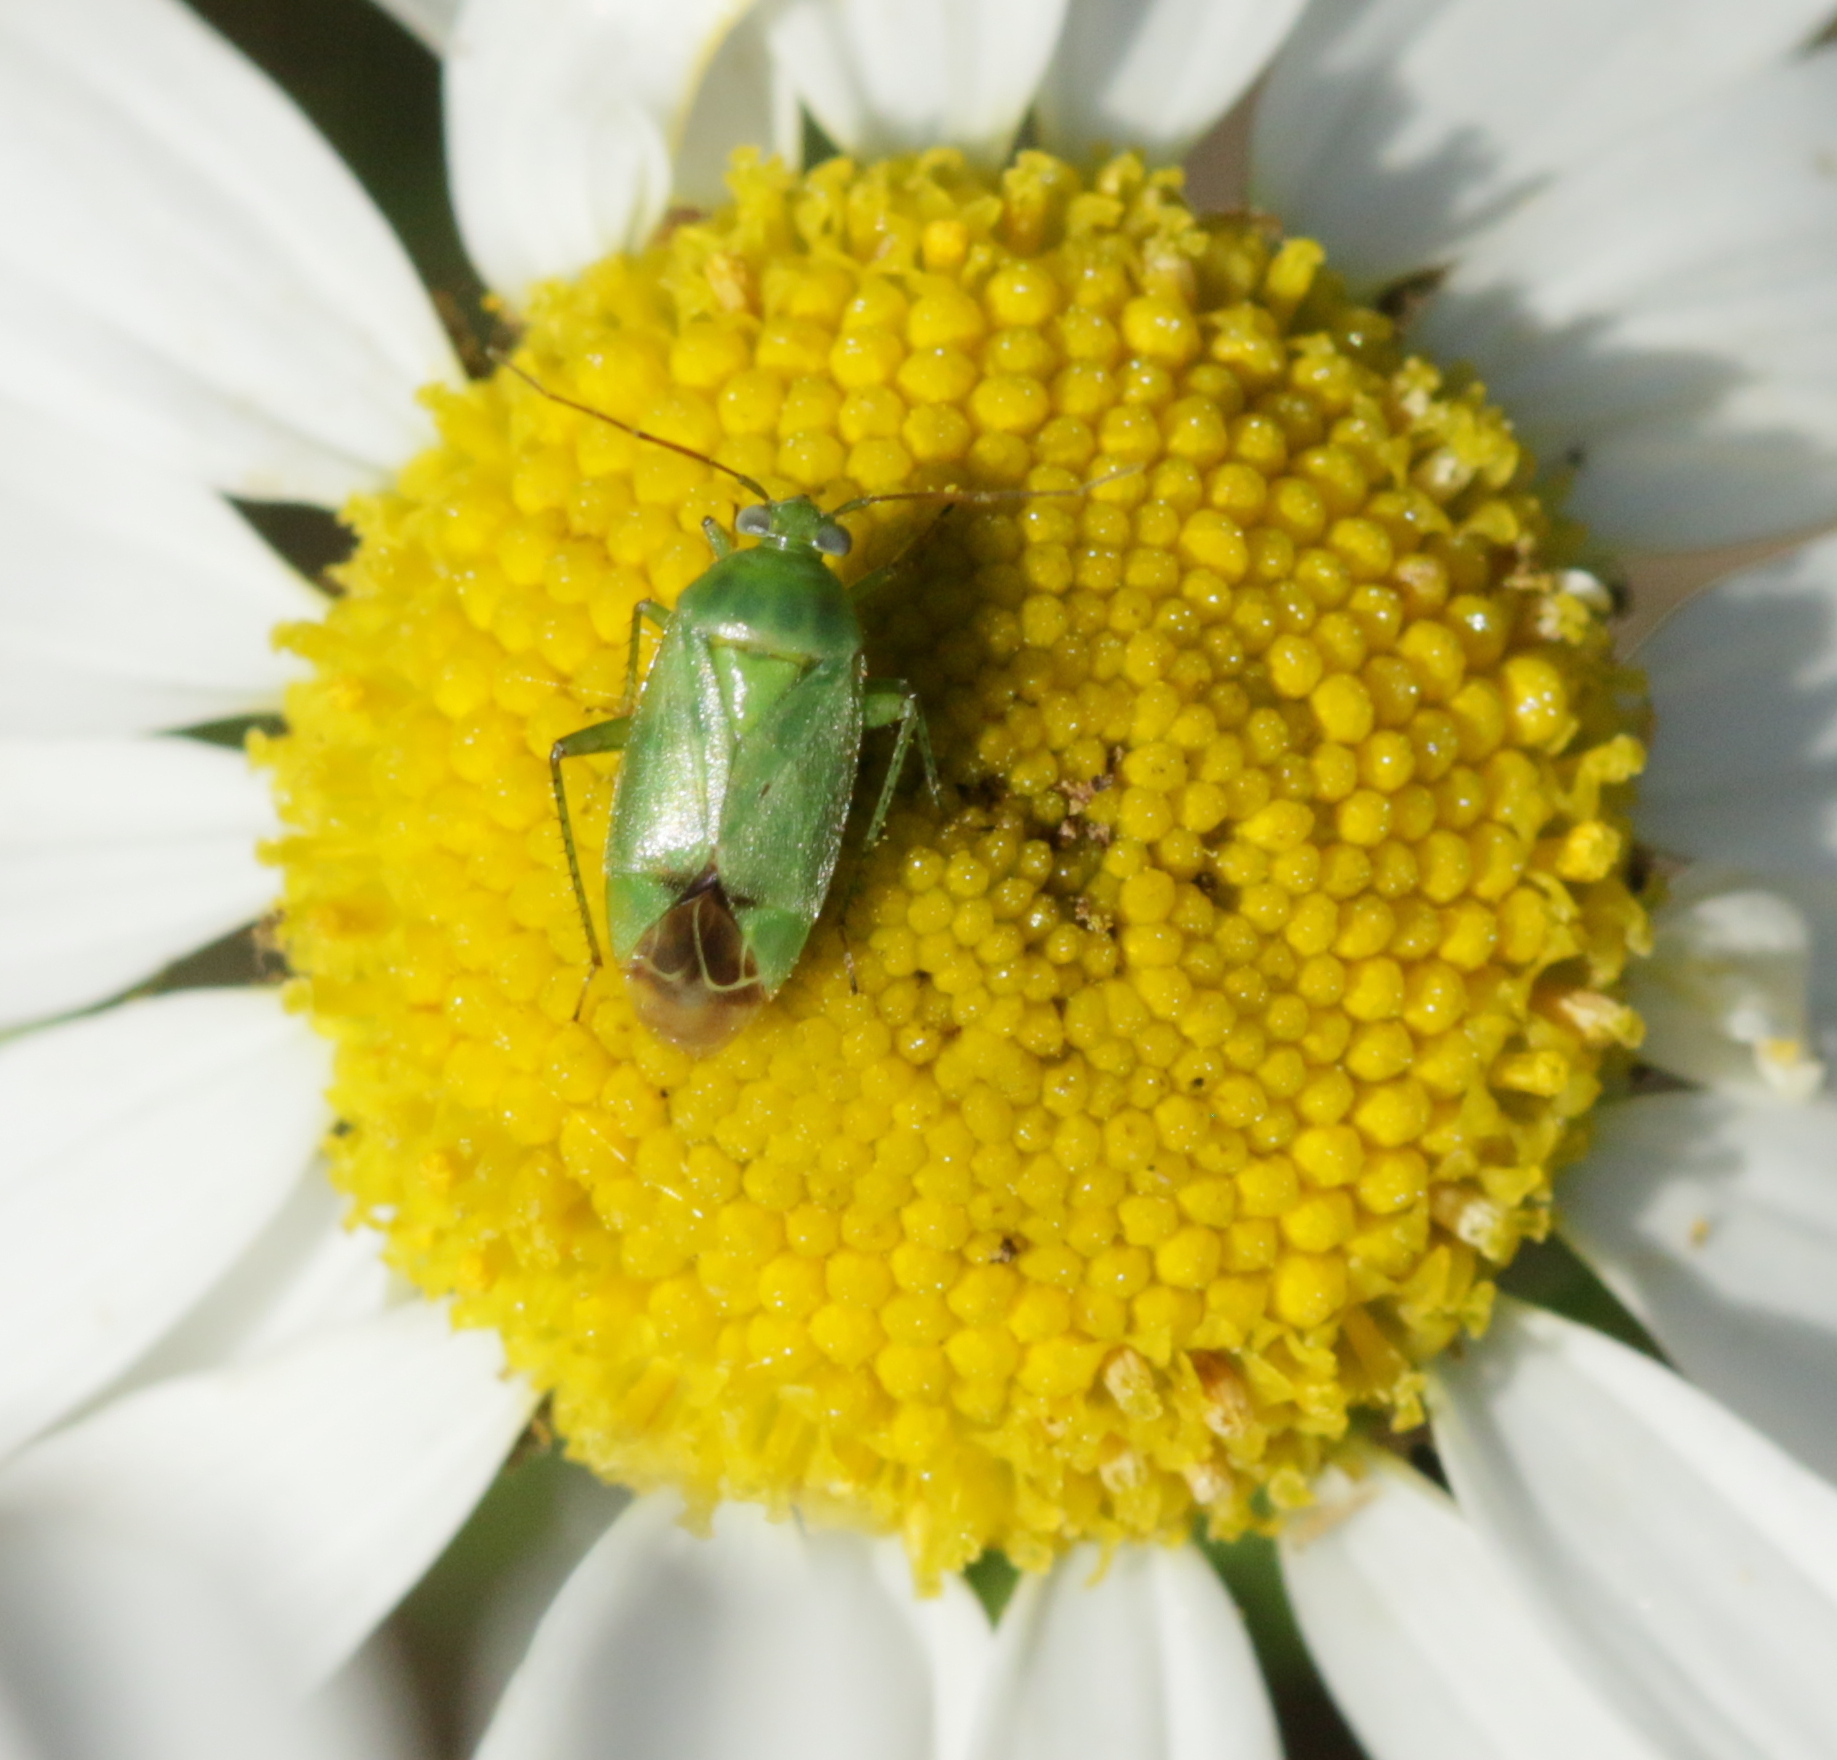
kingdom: Animalia
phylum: Arthropoda
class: Insecta
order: Hemiptera
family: Miridae
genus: Apolygus
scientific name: Apolygus lucorum
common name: Plant bug
